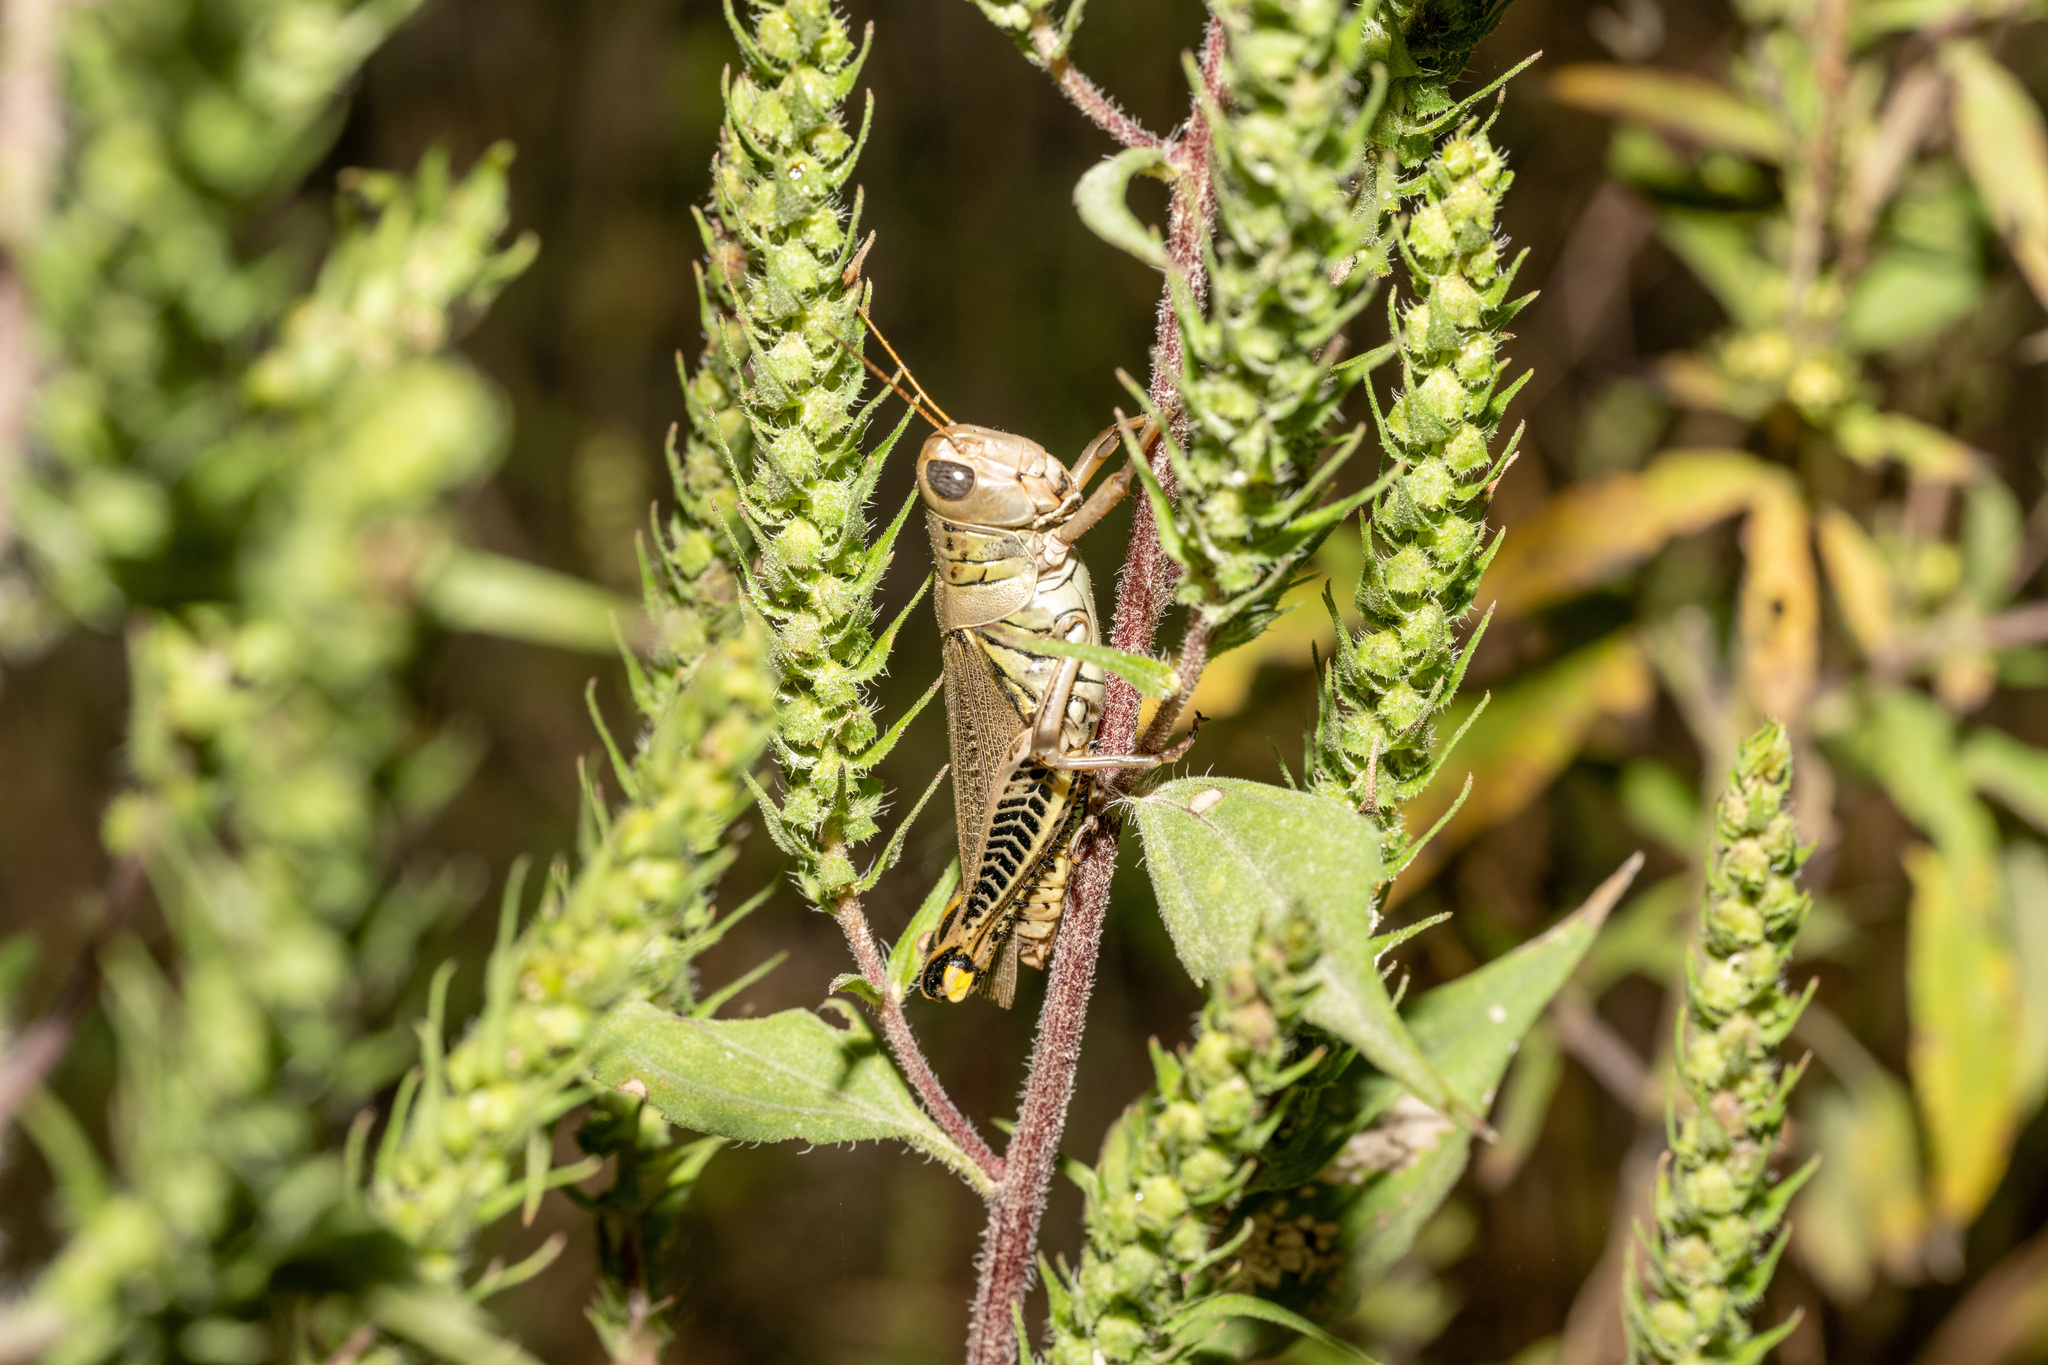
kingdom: Animalia
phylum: Arthropoda
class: Insecta
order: Orthoptera
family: Acrididae
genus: Melanoplus
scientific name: Melanoplus differentialis
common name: Differential grasshopper
